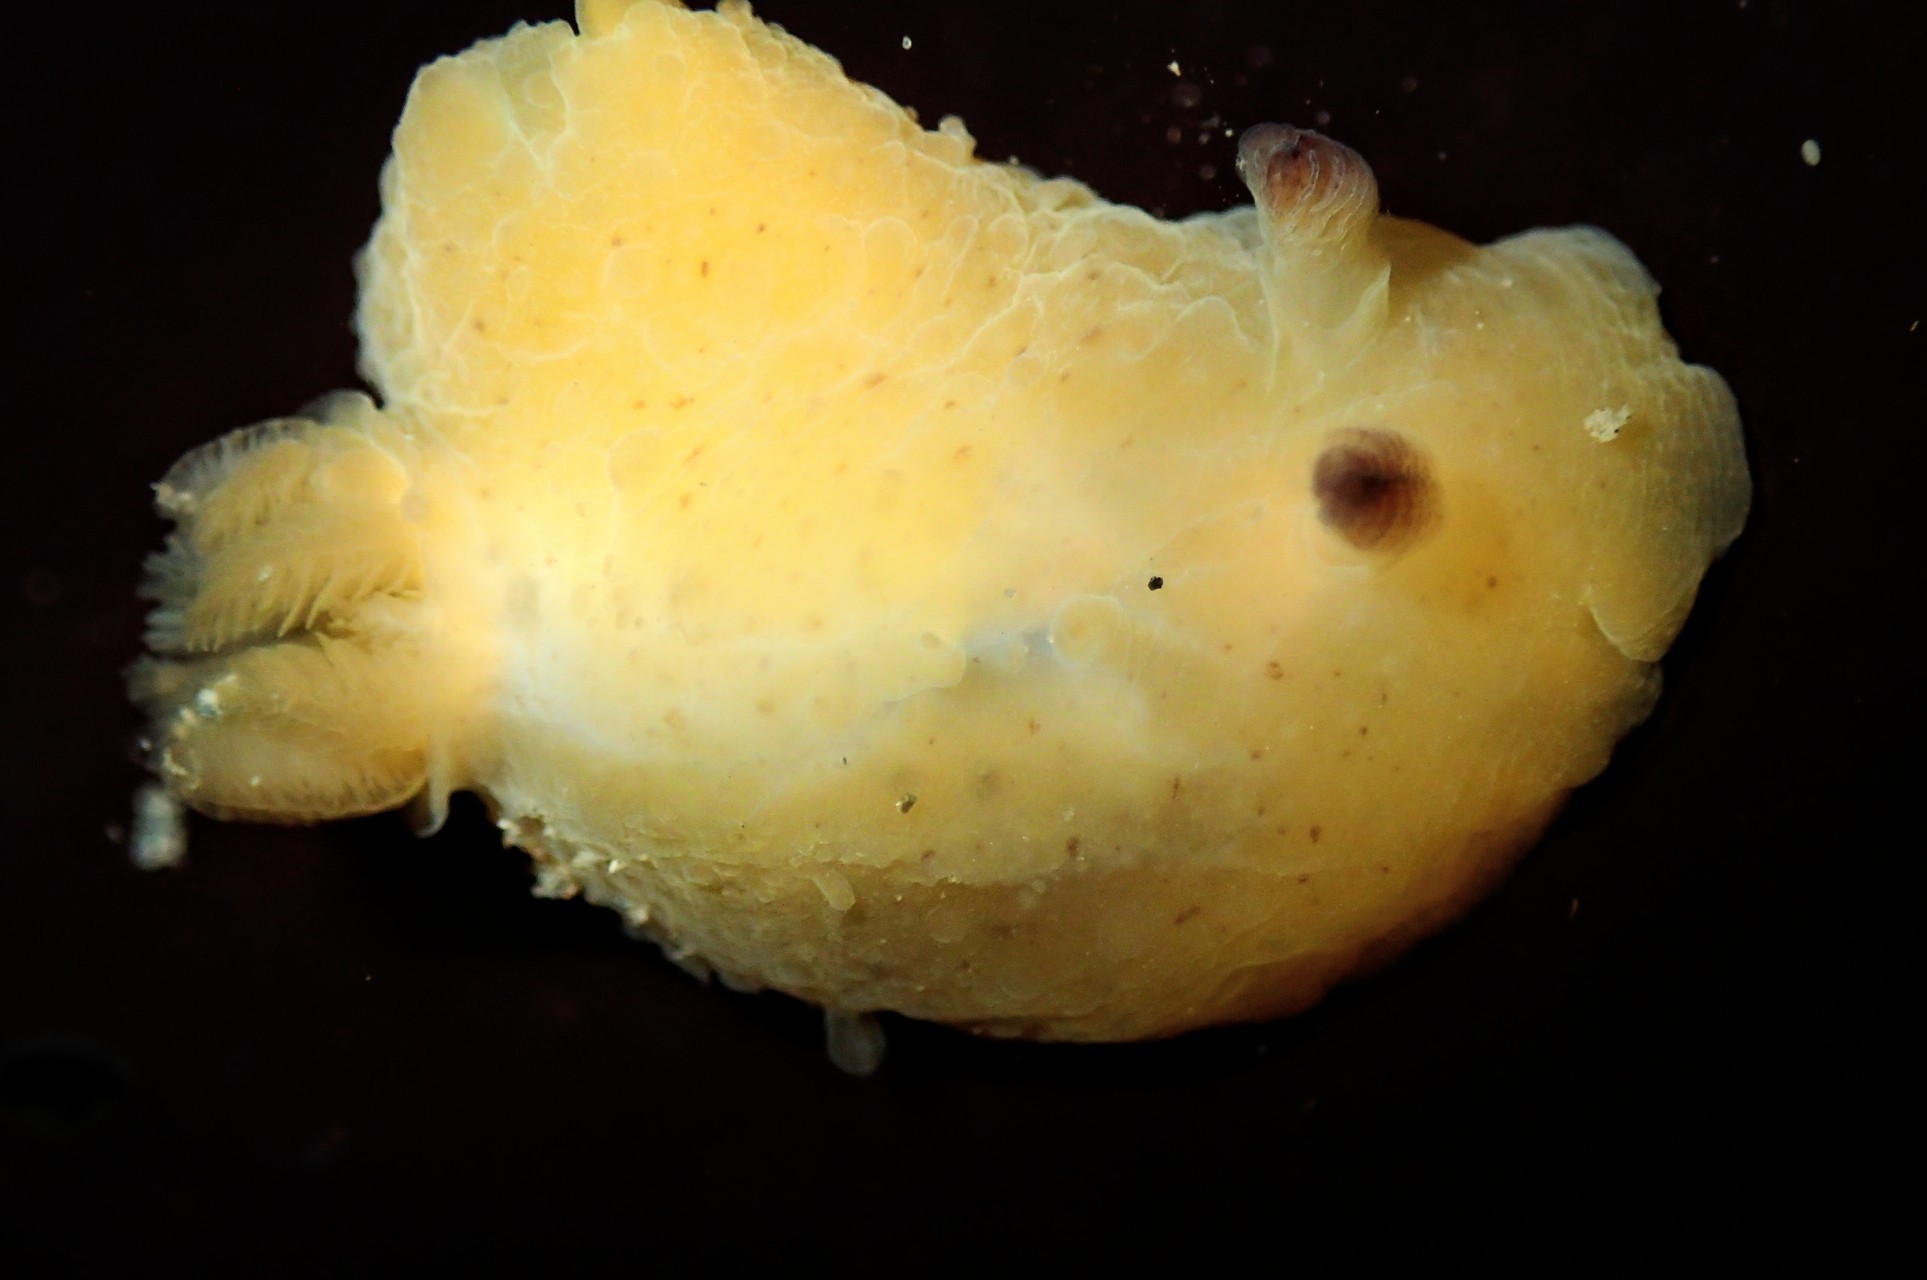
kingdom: Animalia
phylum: Mollusca
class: Gastropoda
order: Nudibranchia
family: Actinocyclidae
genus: Hallaxa
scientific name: Hallaxa chani
